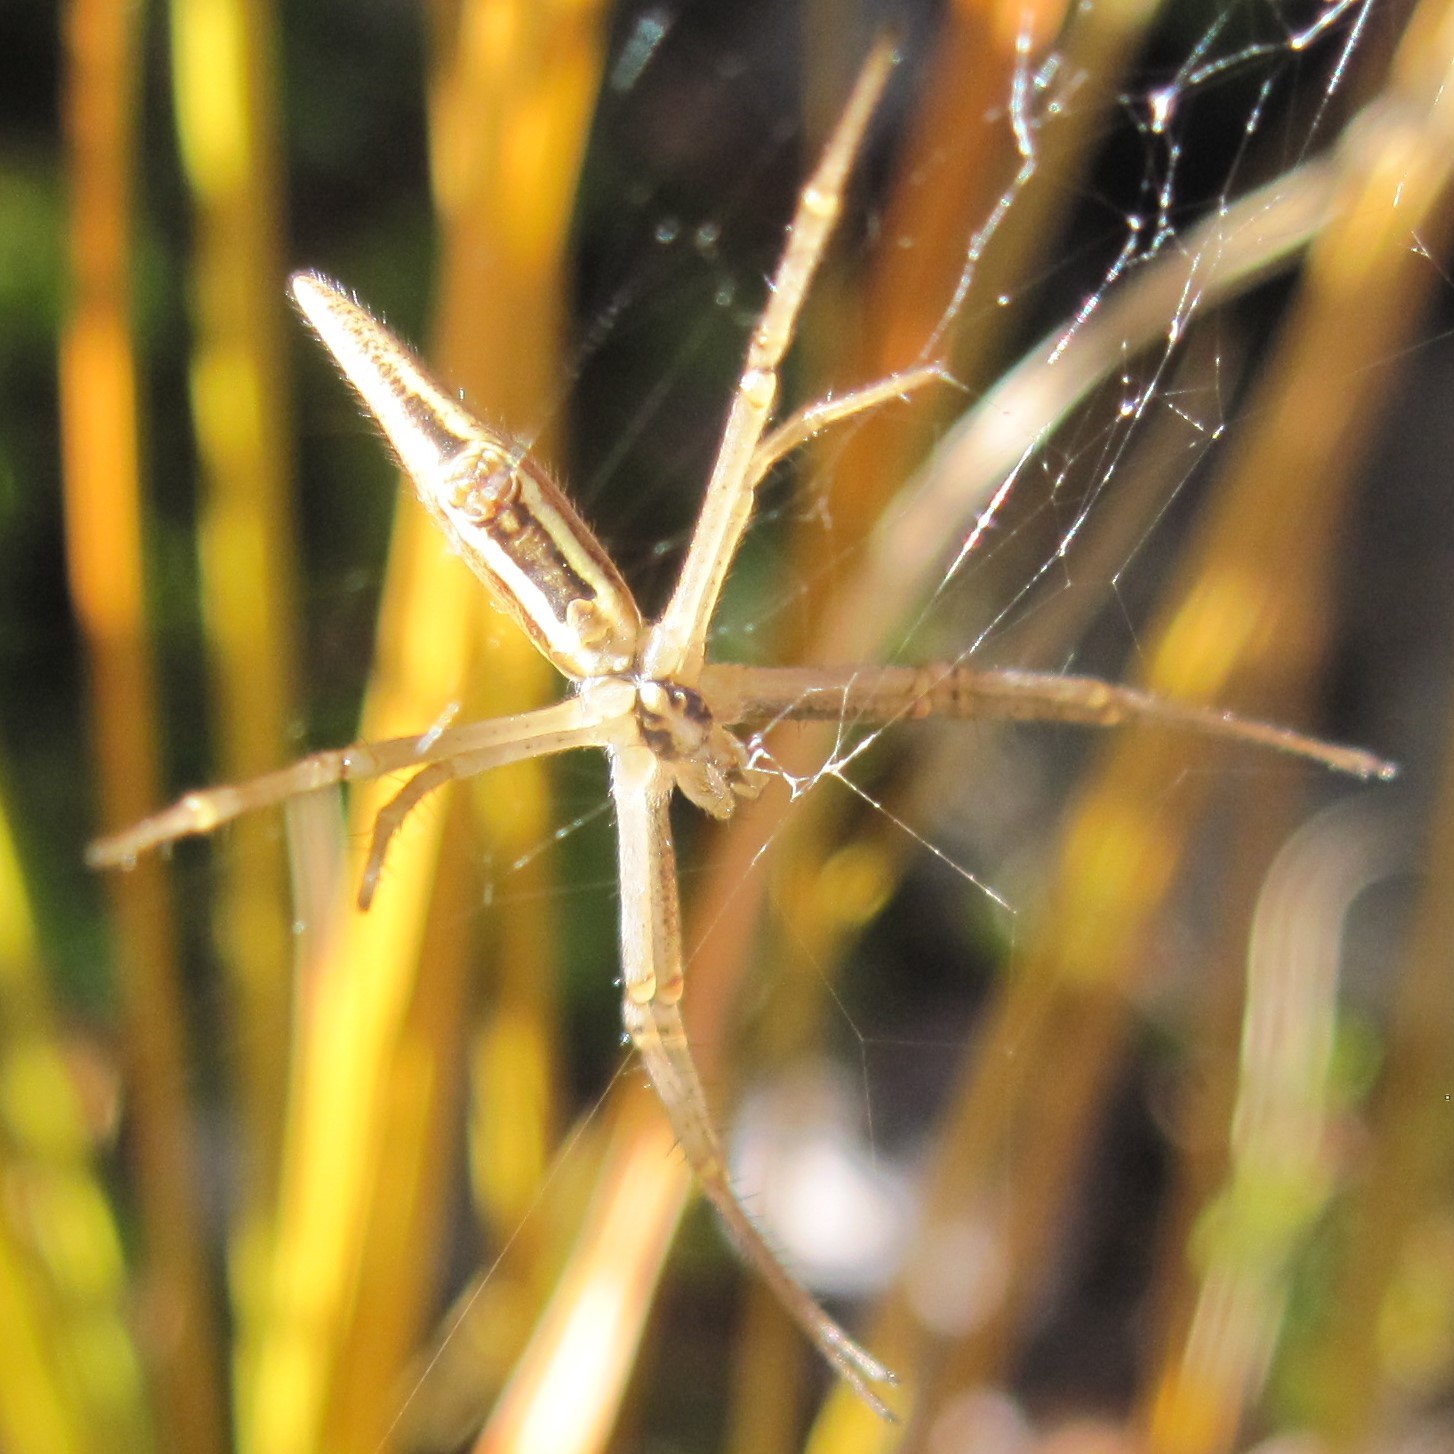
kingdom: Animalia
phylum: Arthropoda
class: Arachnida
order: Araneae
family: Araneidae
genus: Argiope
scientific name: Argiope protensa
